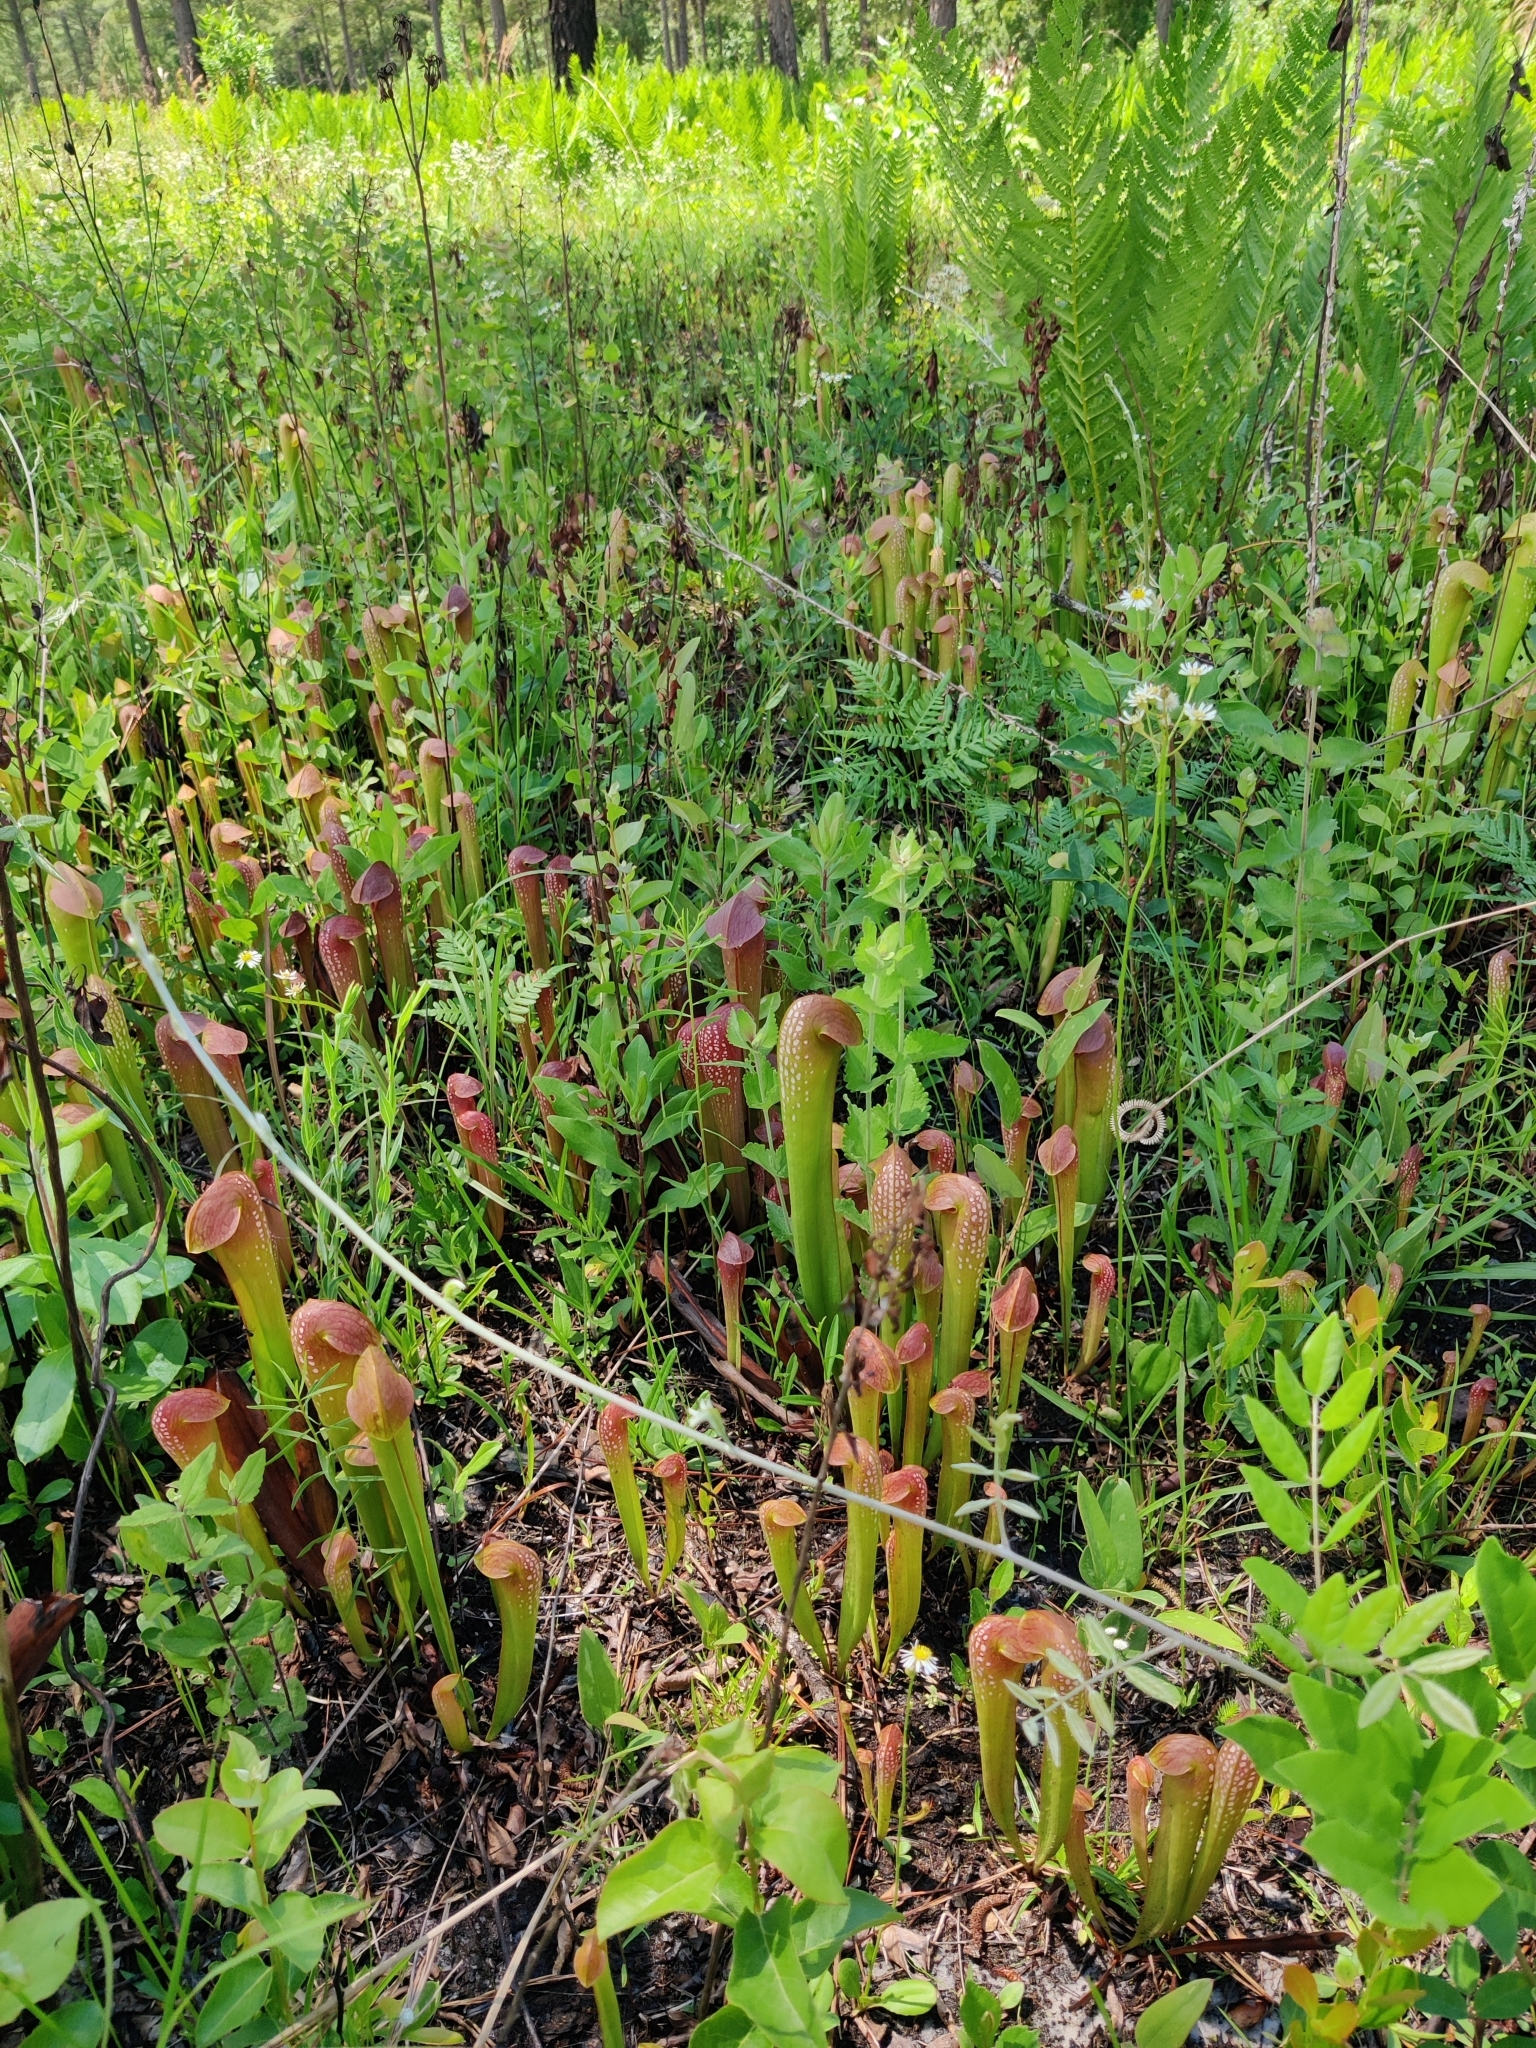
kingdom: Plantae
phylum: Tracheophyta
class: Magnoliopsida
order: Ericales
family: Sarraceniaceae
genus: Sarracenia
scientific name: Sarracenia minor
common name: Rainhat-trumpet
